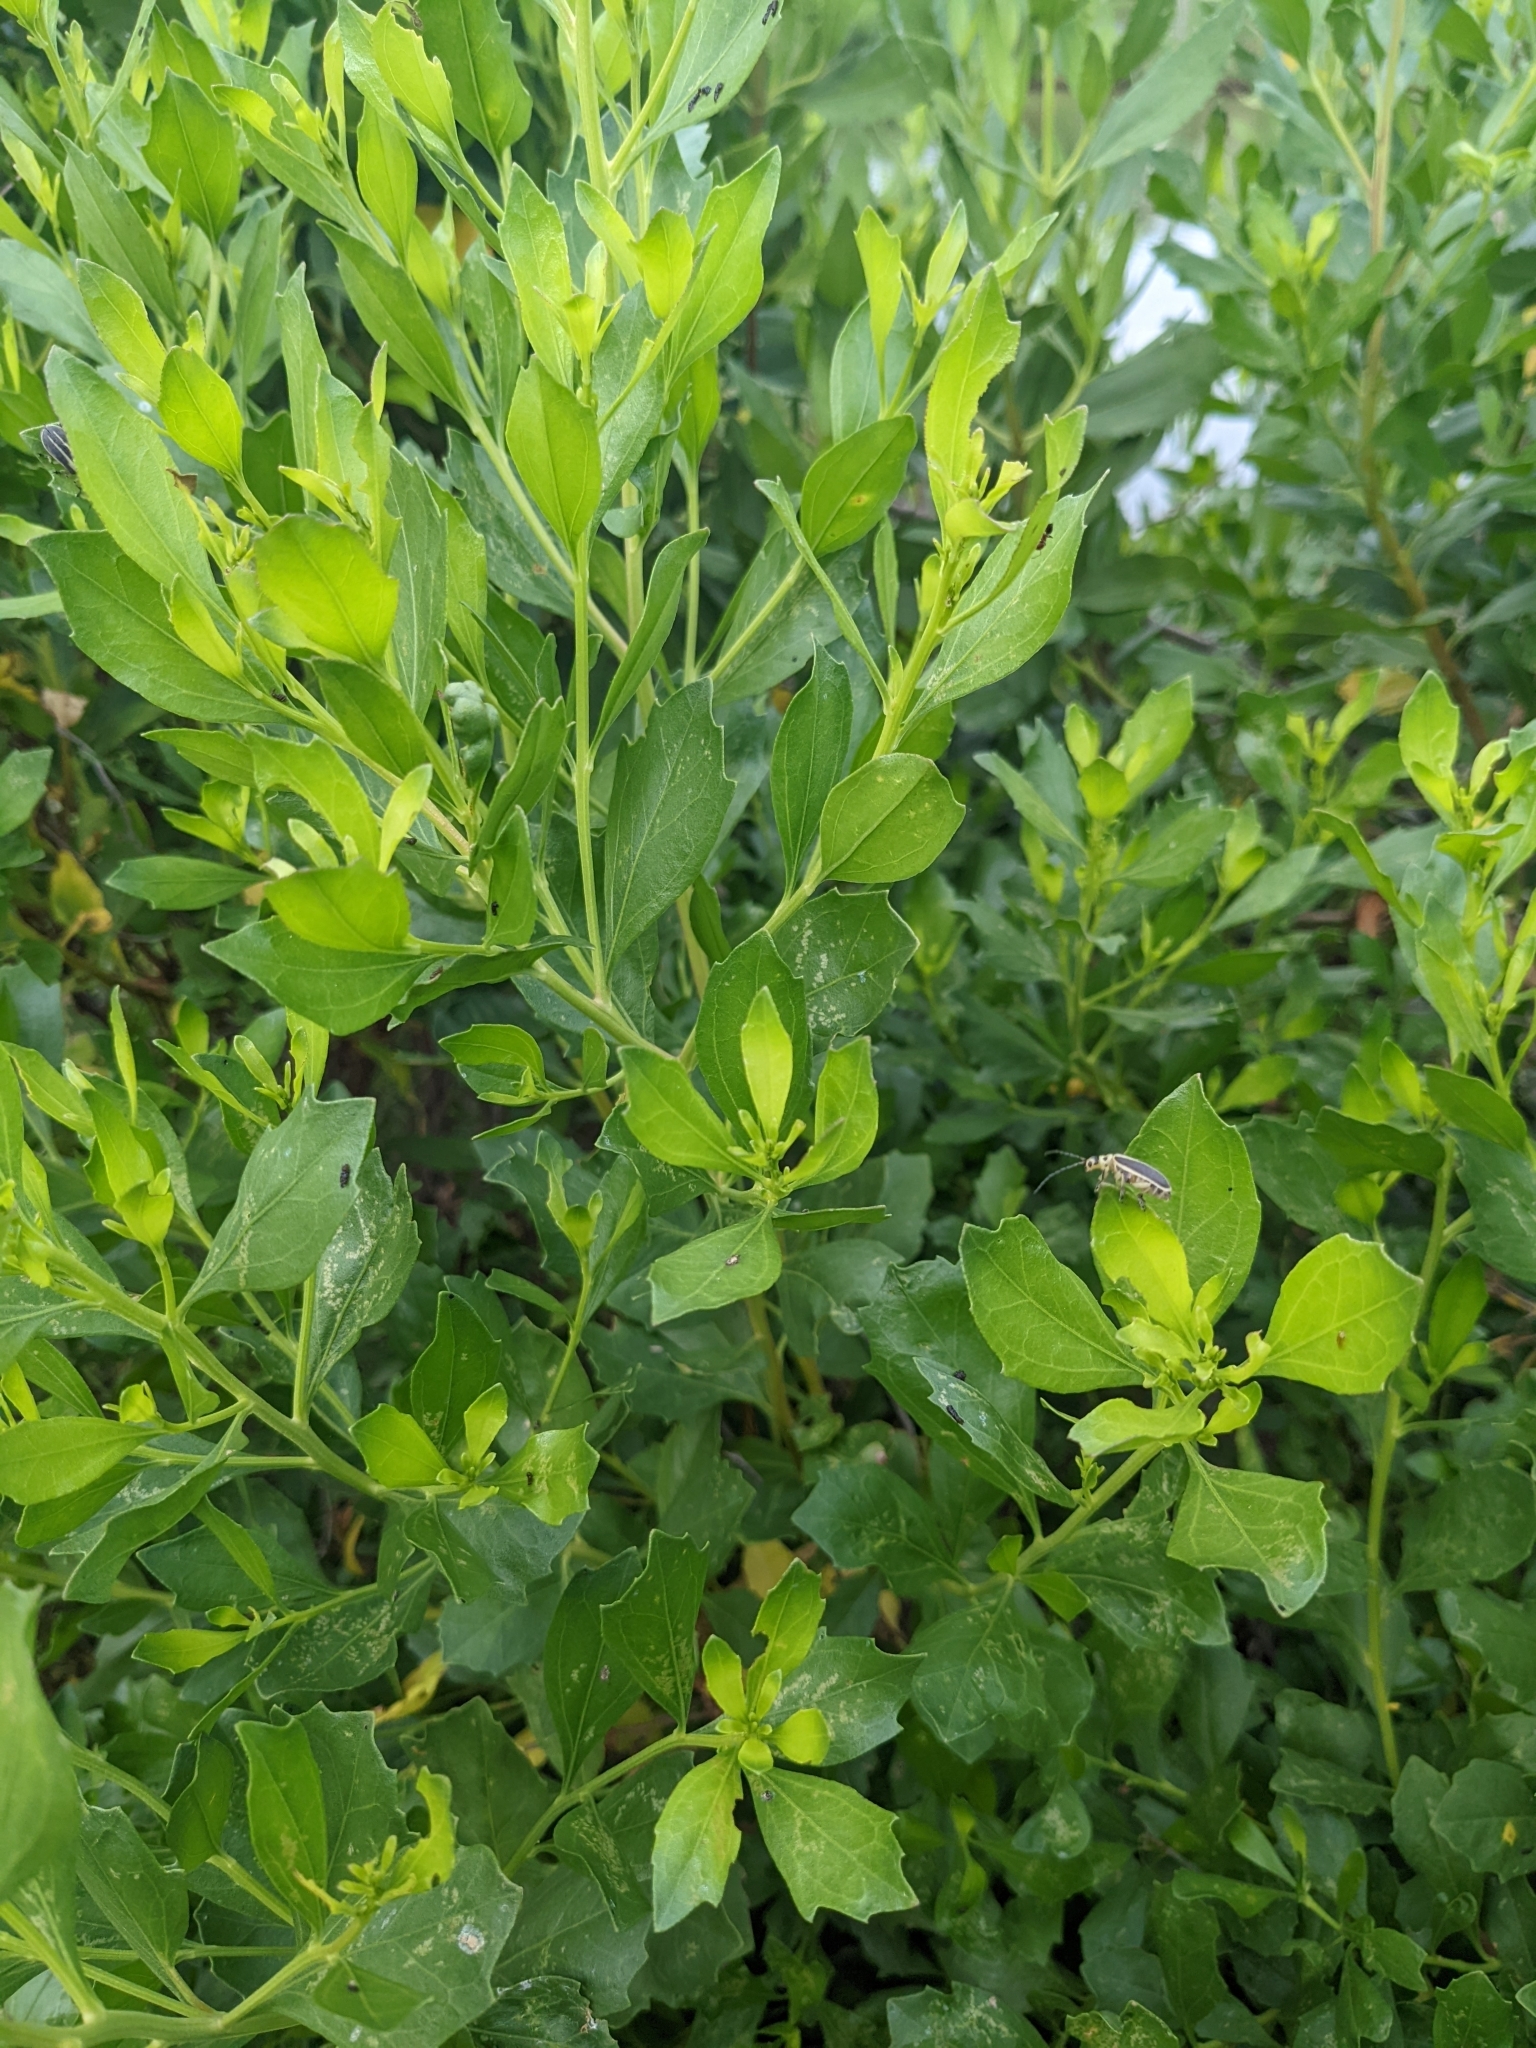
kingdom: Plantae
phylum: Tracheophyta
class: Magnoliopsida
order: Asterales
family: Asteraceae
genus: Baccharis
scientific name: Baccharis halimifolia
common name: Eastern baccharis
